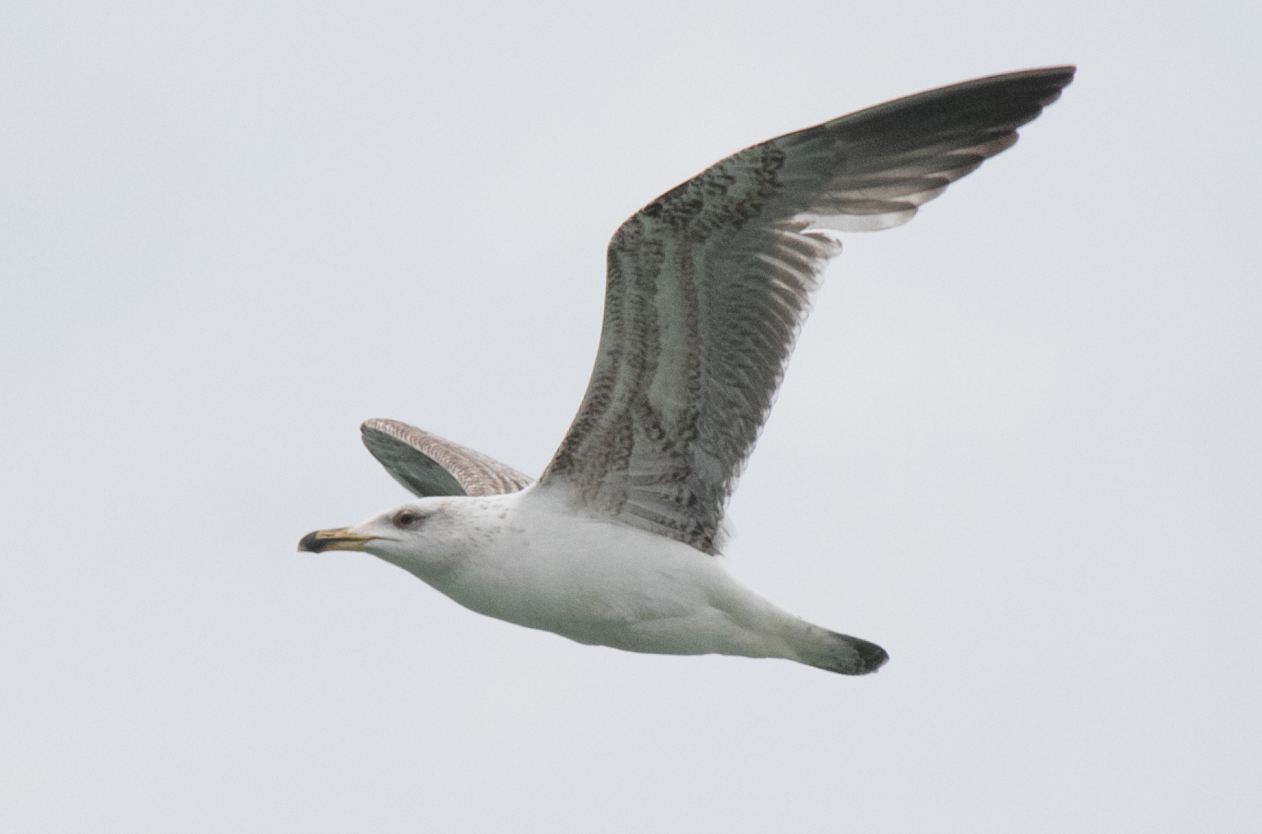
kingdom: Animalia
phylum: Chordata
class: Aves
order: Charadriiformes
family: Laridae
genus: Larus
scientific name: Larus michahellis
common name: Yellow-legged gull
